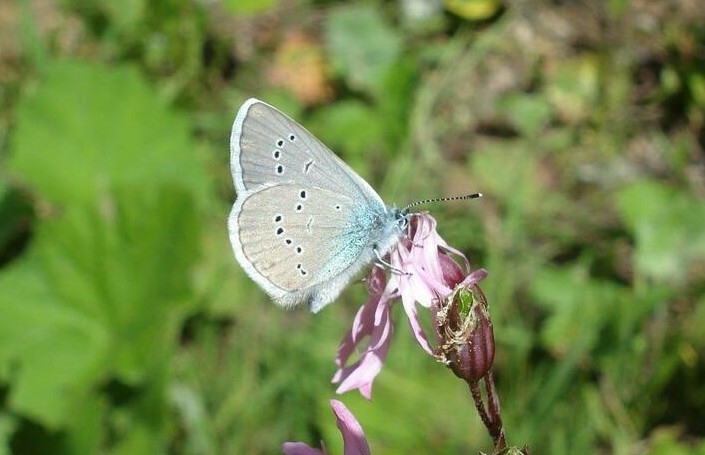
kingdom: Animalia
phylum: Arthropoda
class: Insecta
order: Lepidoptera
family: Lycaenidae
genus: Cyaniris
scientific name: Cyaniris semiargus
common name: Mazarine blue
